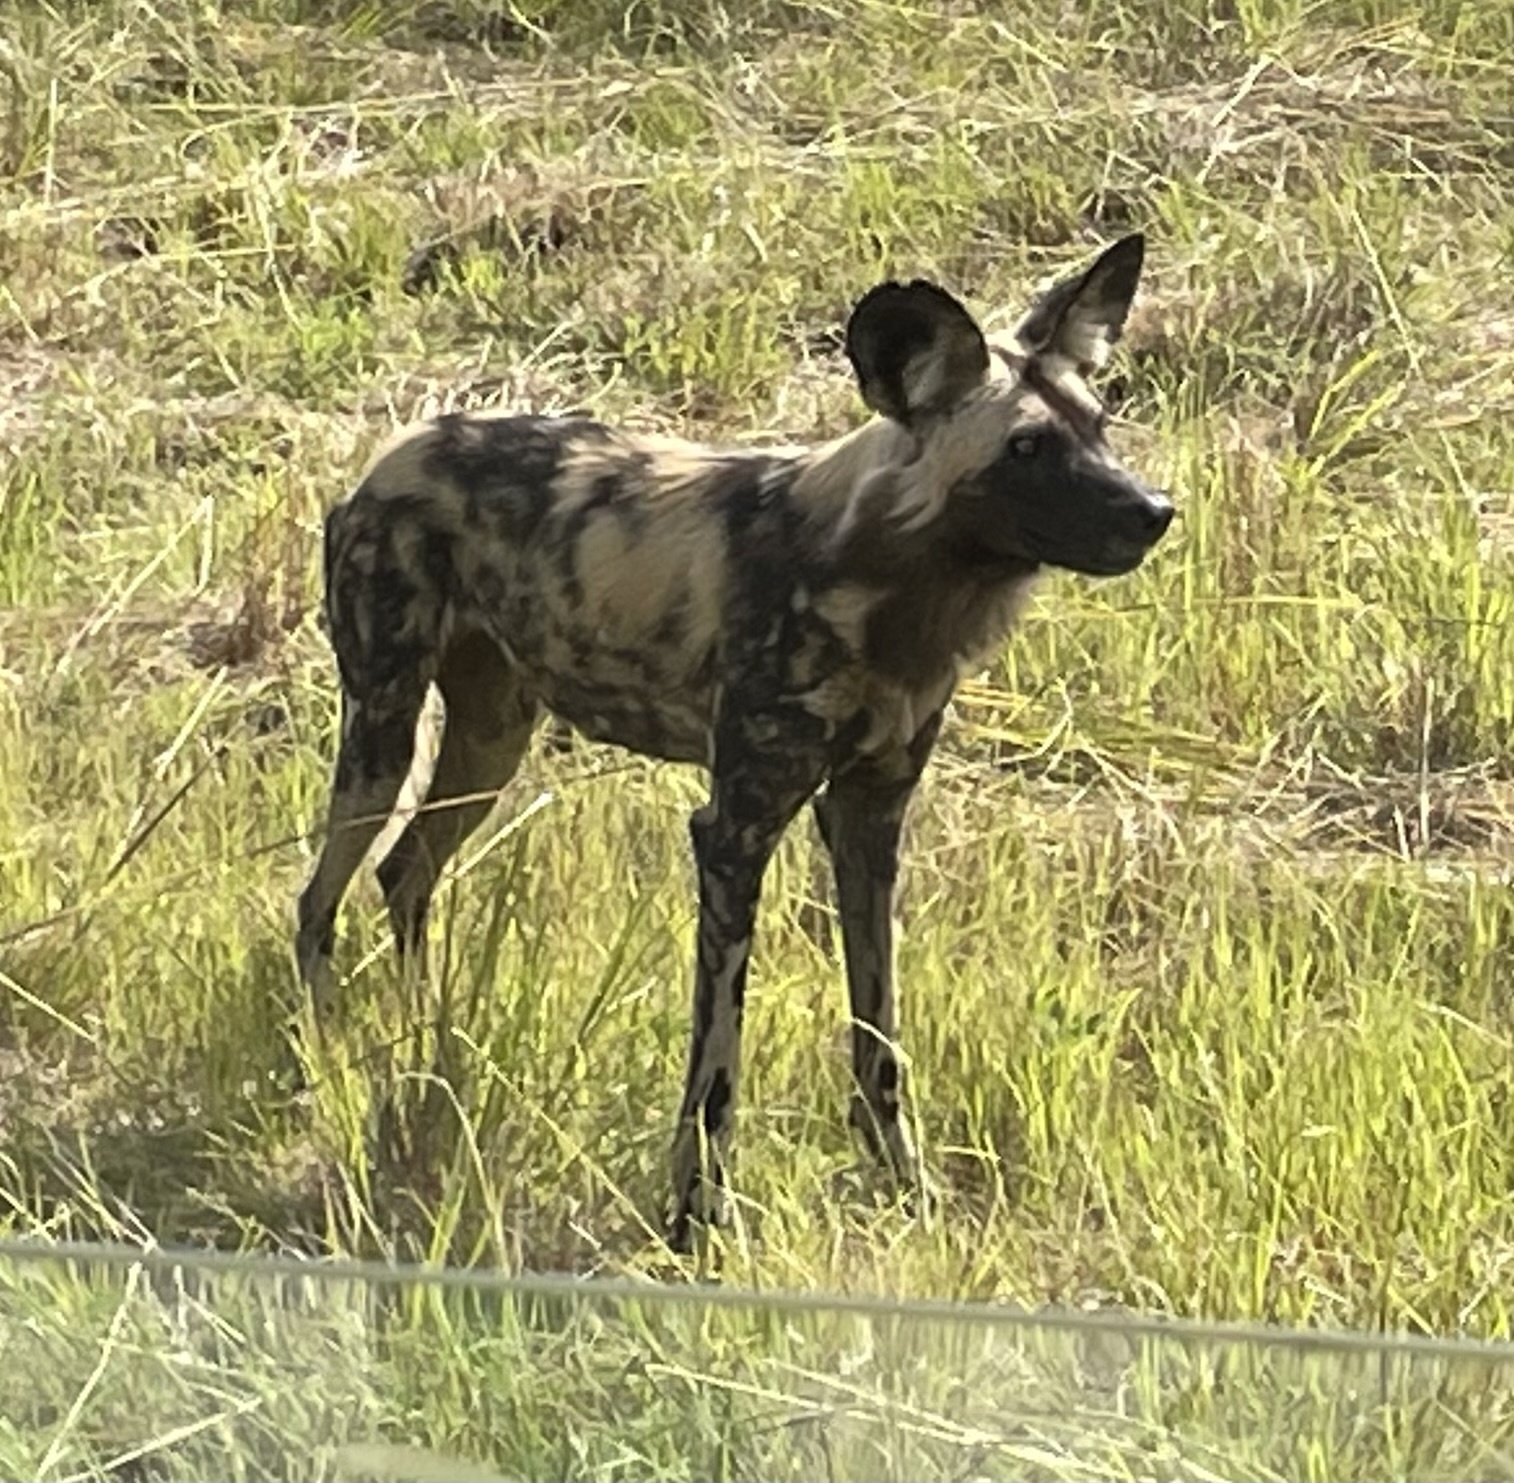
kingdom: Animalia
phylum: Chordata
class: Mammalia
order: Carnivora
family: Canidae
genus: Lycaon
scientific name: Lycaon pictus
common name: African wild dog
